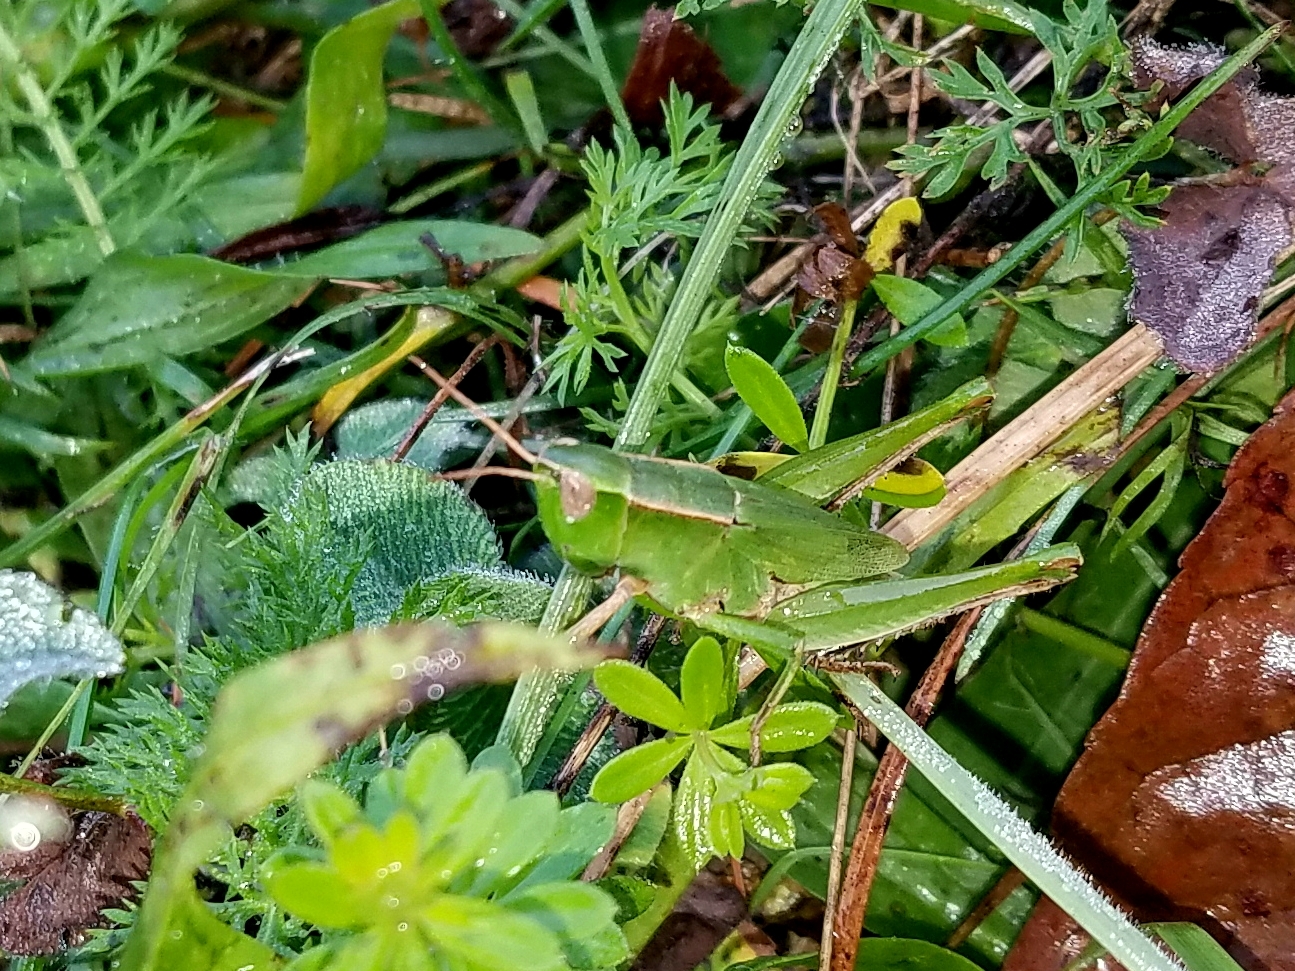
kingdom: Animalia
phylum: Arthropoda
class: Insecta
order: Orthoptera
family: Acrididae
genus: Dichromorpha
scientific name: Dichromorpha viridis
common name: Short-winged green grasshopper
